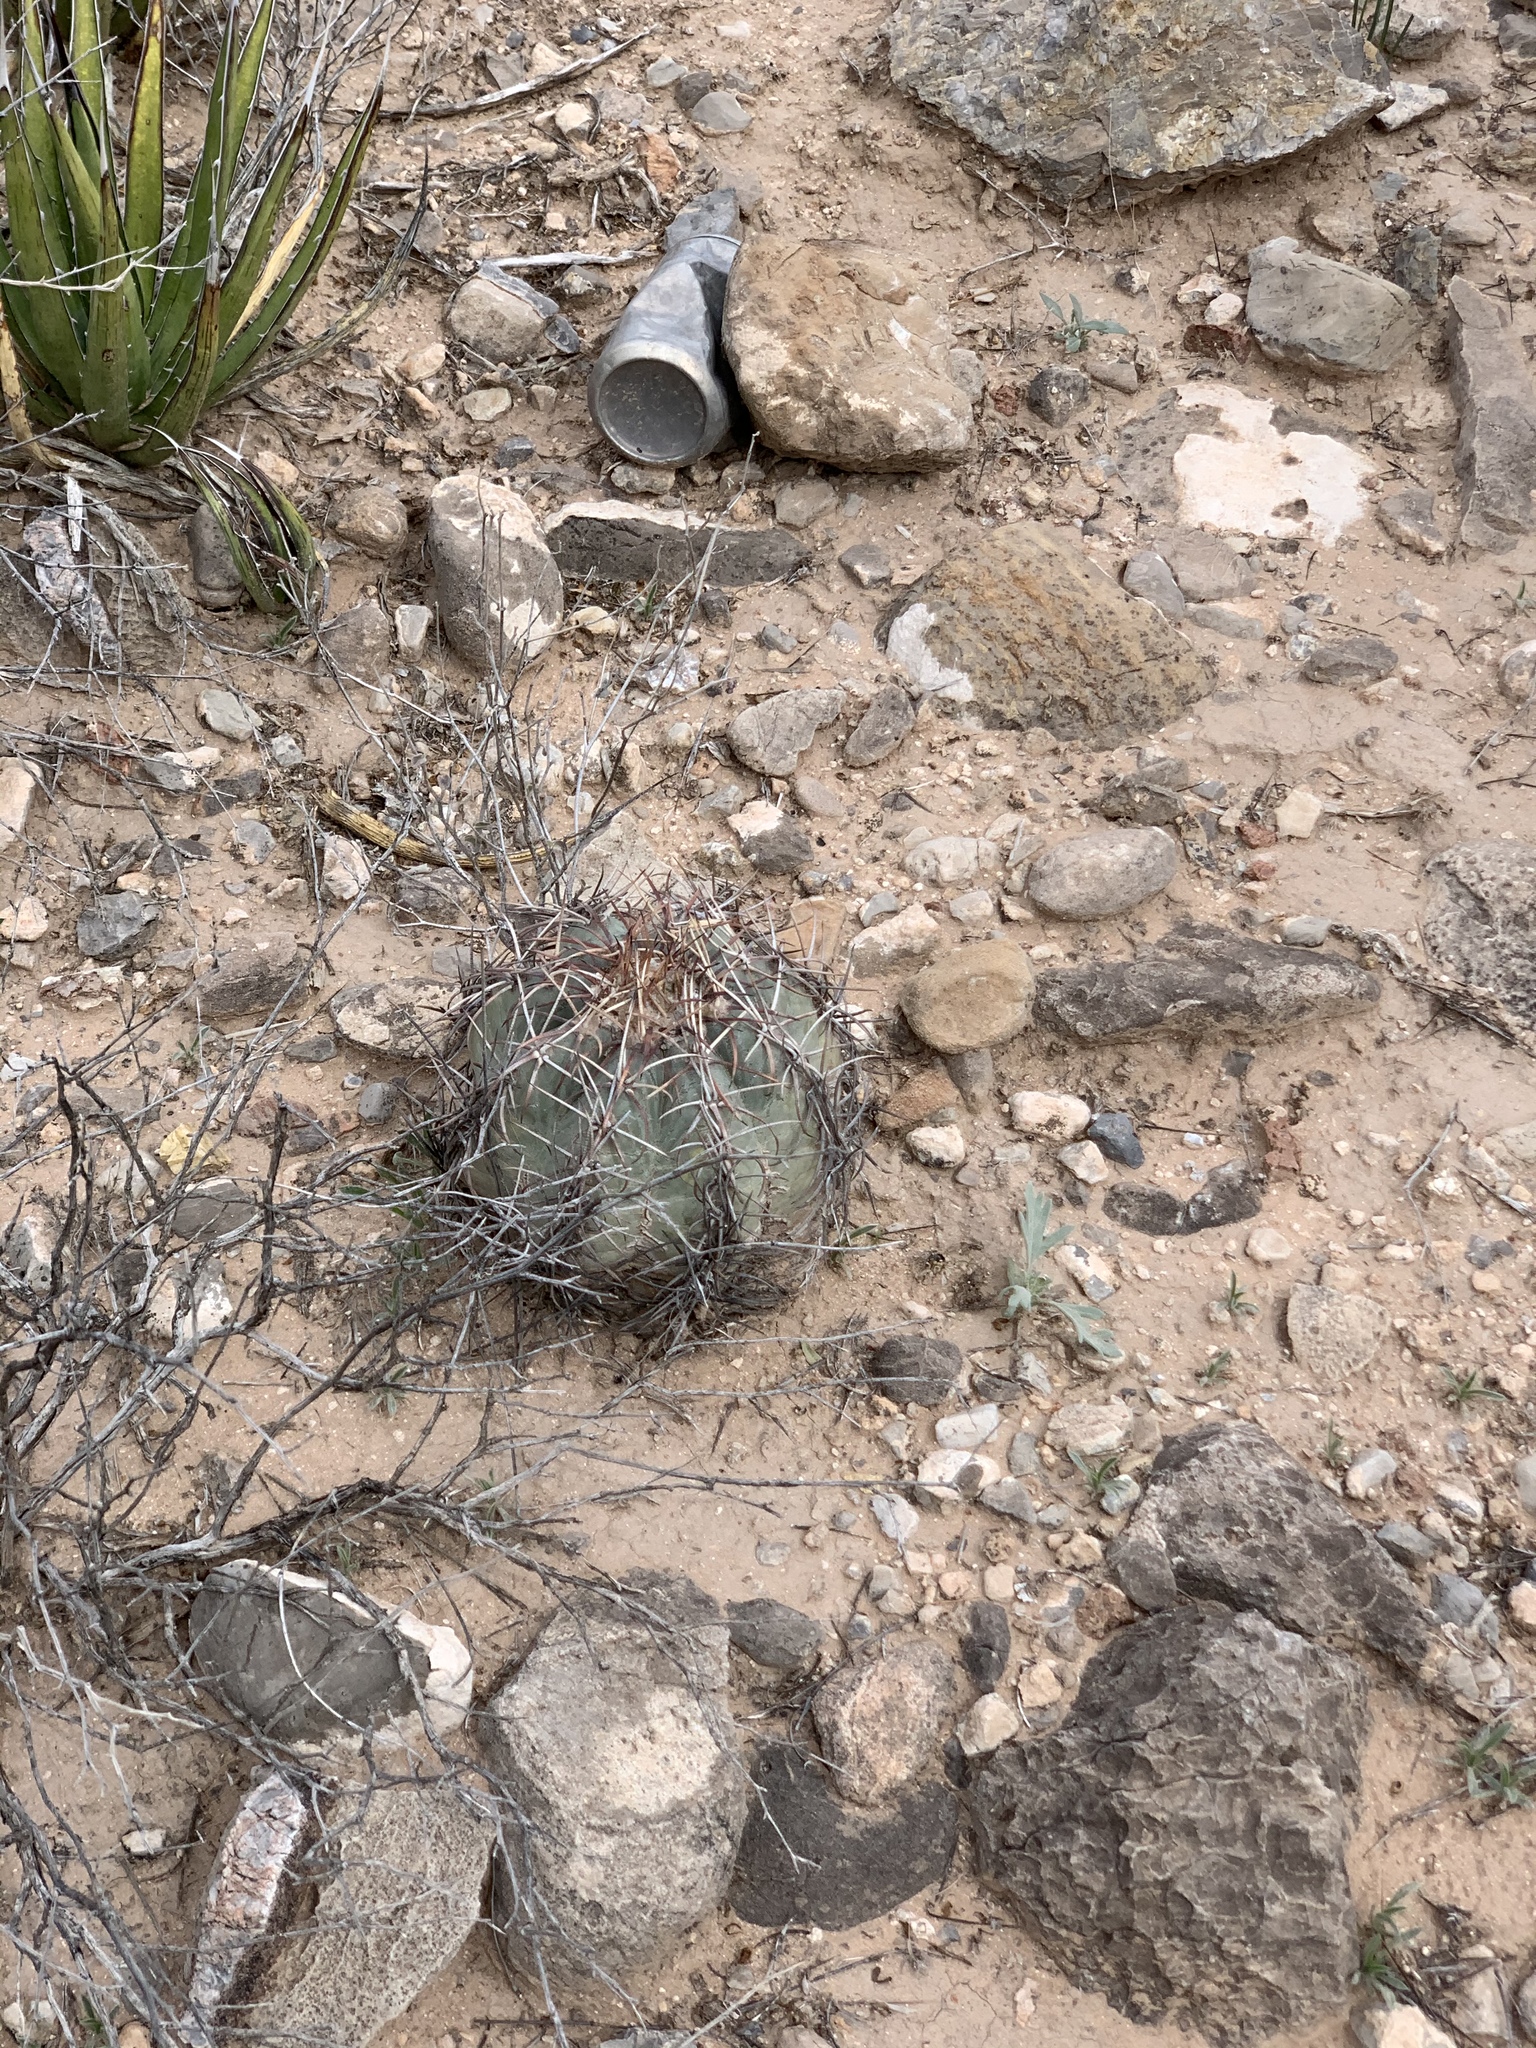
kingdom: Plantae
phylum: Tracheophyta
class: Magnoliopsida
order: Caryophyllales
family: Cactaceae
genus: Echinocactus
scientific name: Echinocactus horizonthalonius
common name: Devilshead
